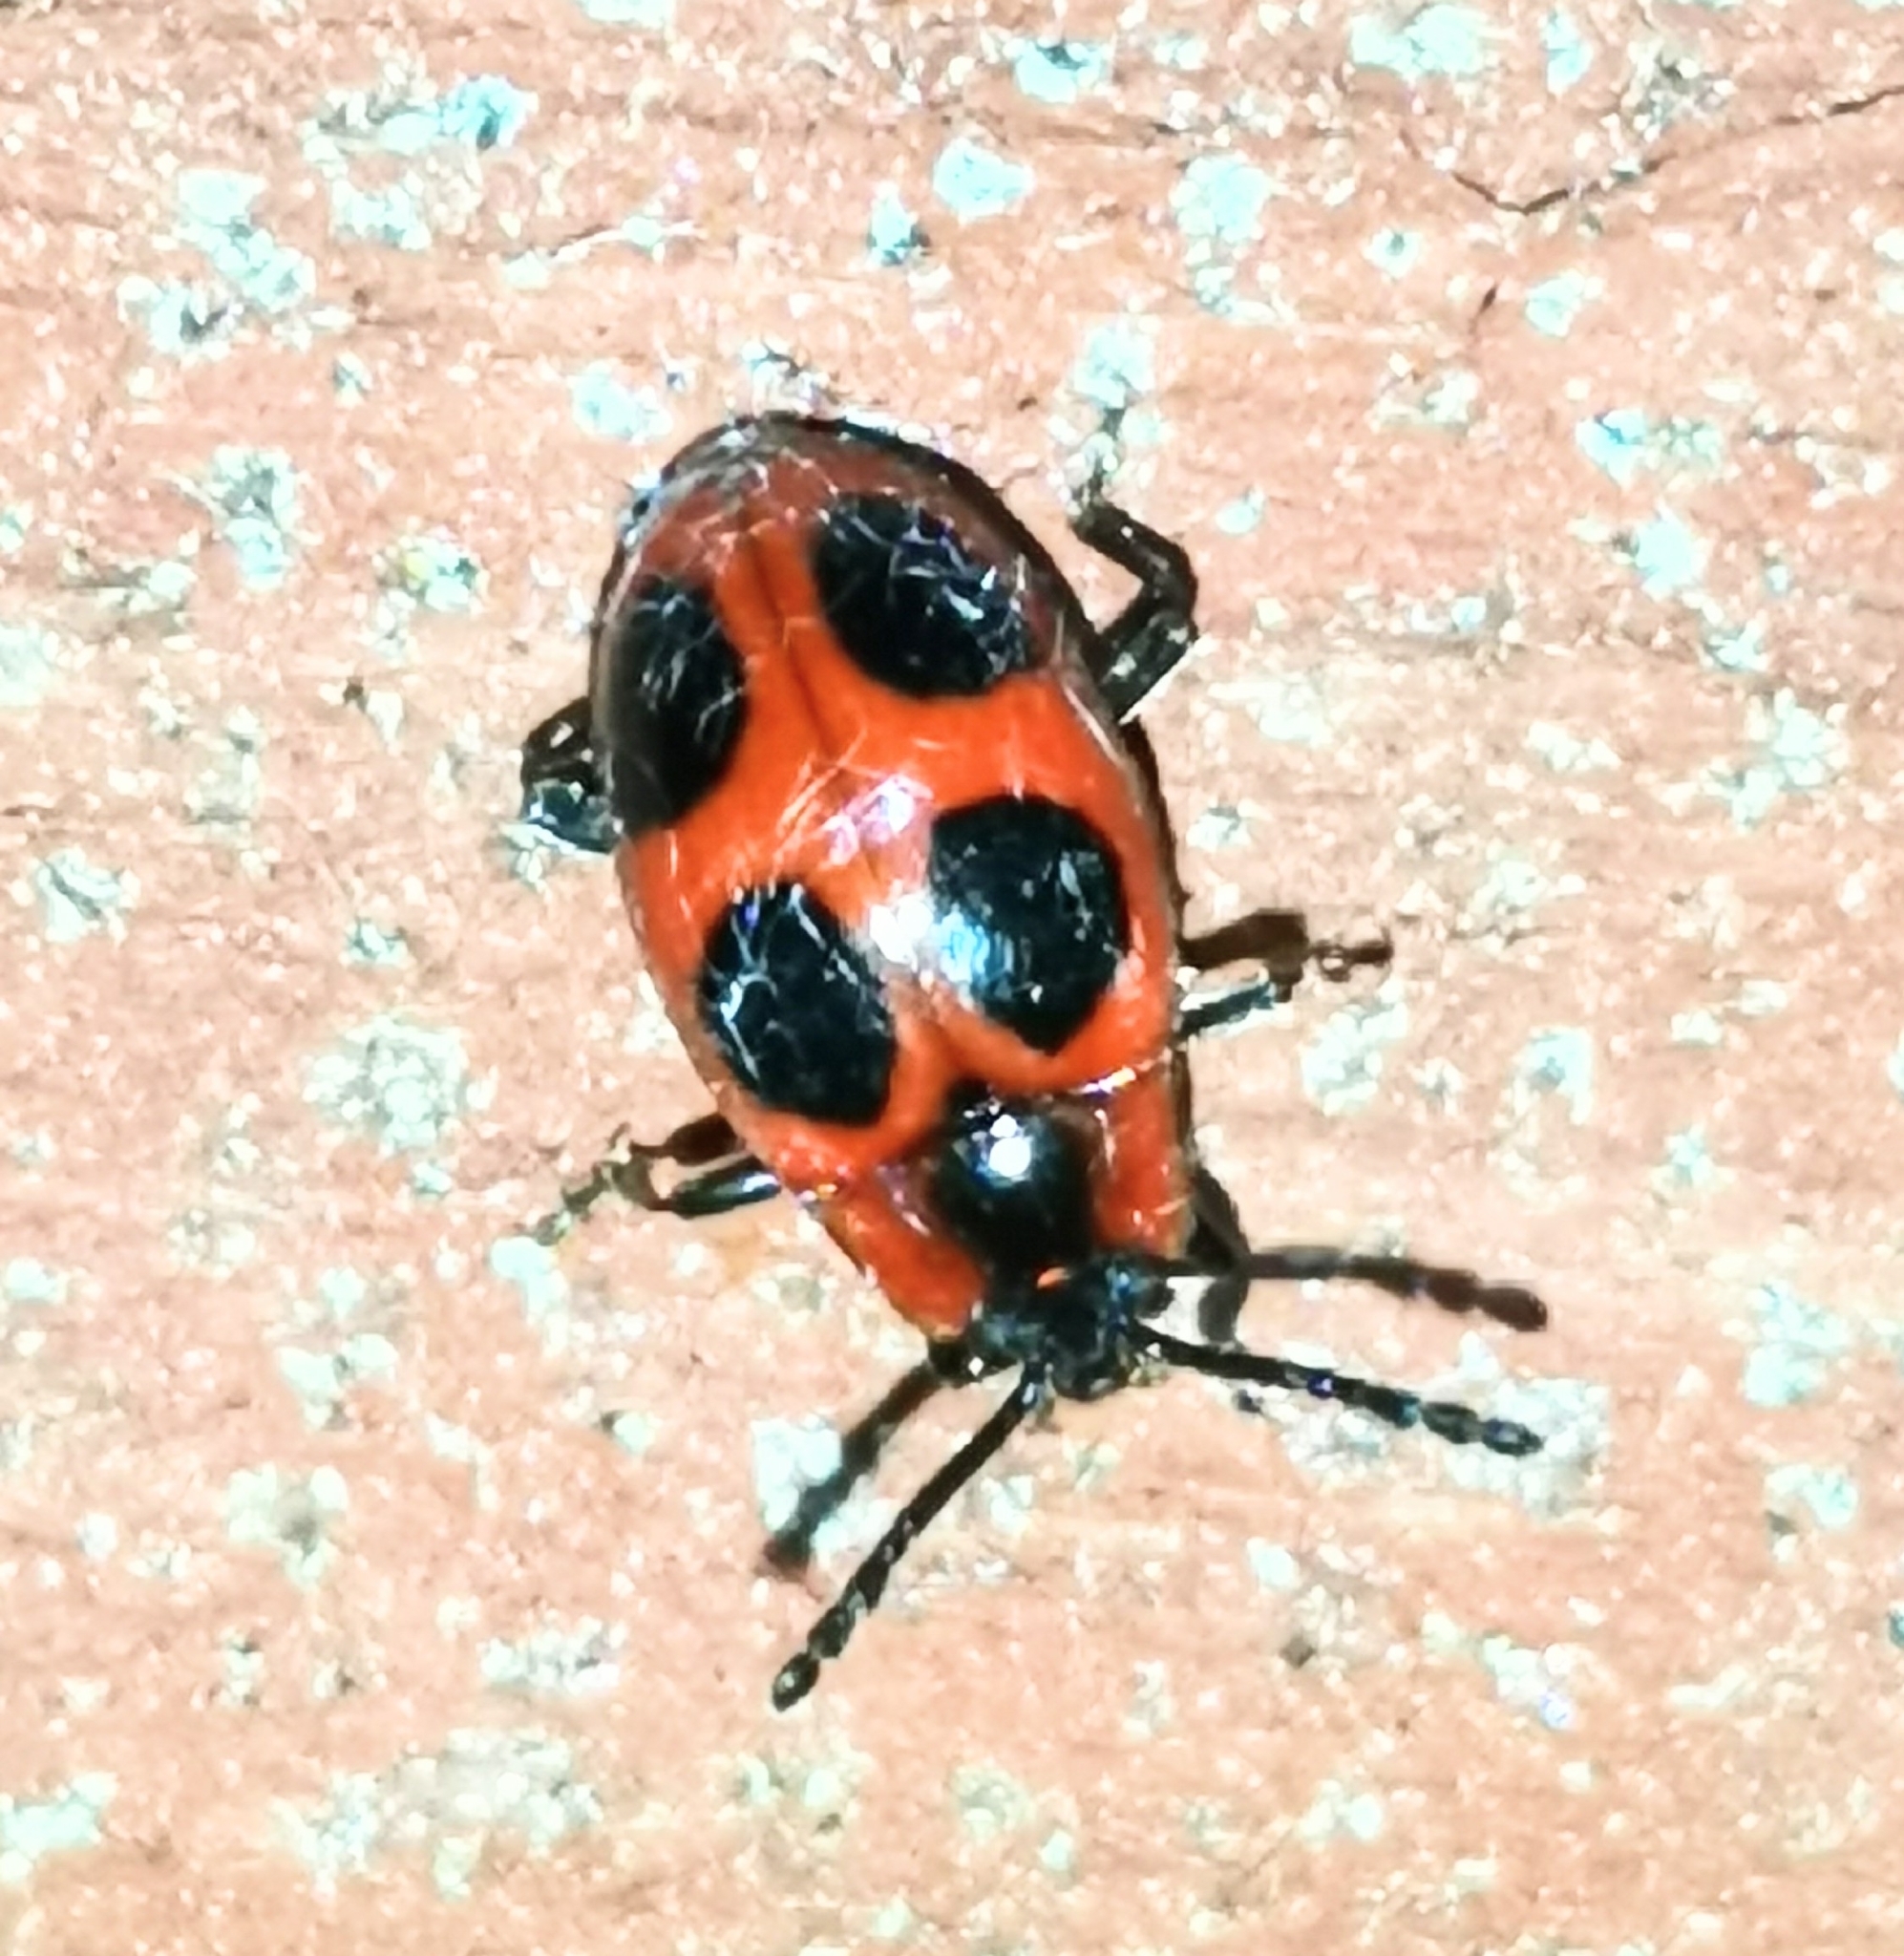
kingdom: Animalia
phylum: Arthropoda
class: Insecta
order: Coleoptera
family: Endomychidae
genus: Endomychus
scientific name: Endomychus coccineus
